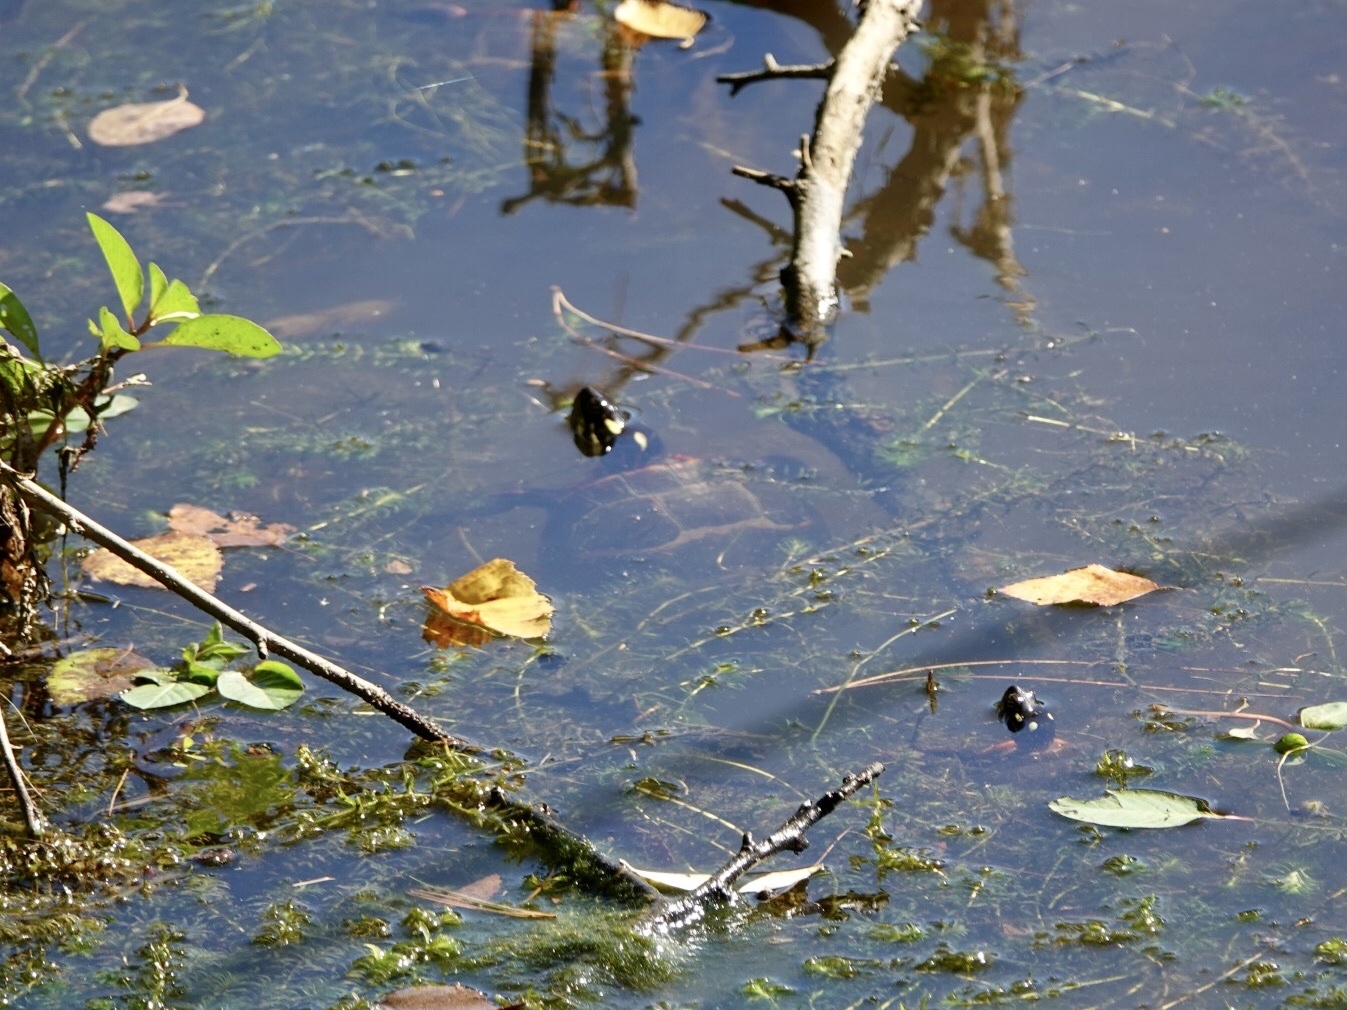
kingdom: Animalia
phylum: Chordata
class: Testudines
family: Emydidae
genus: Chrysemys
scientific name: Chrysemys picta
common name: Painted turtle
